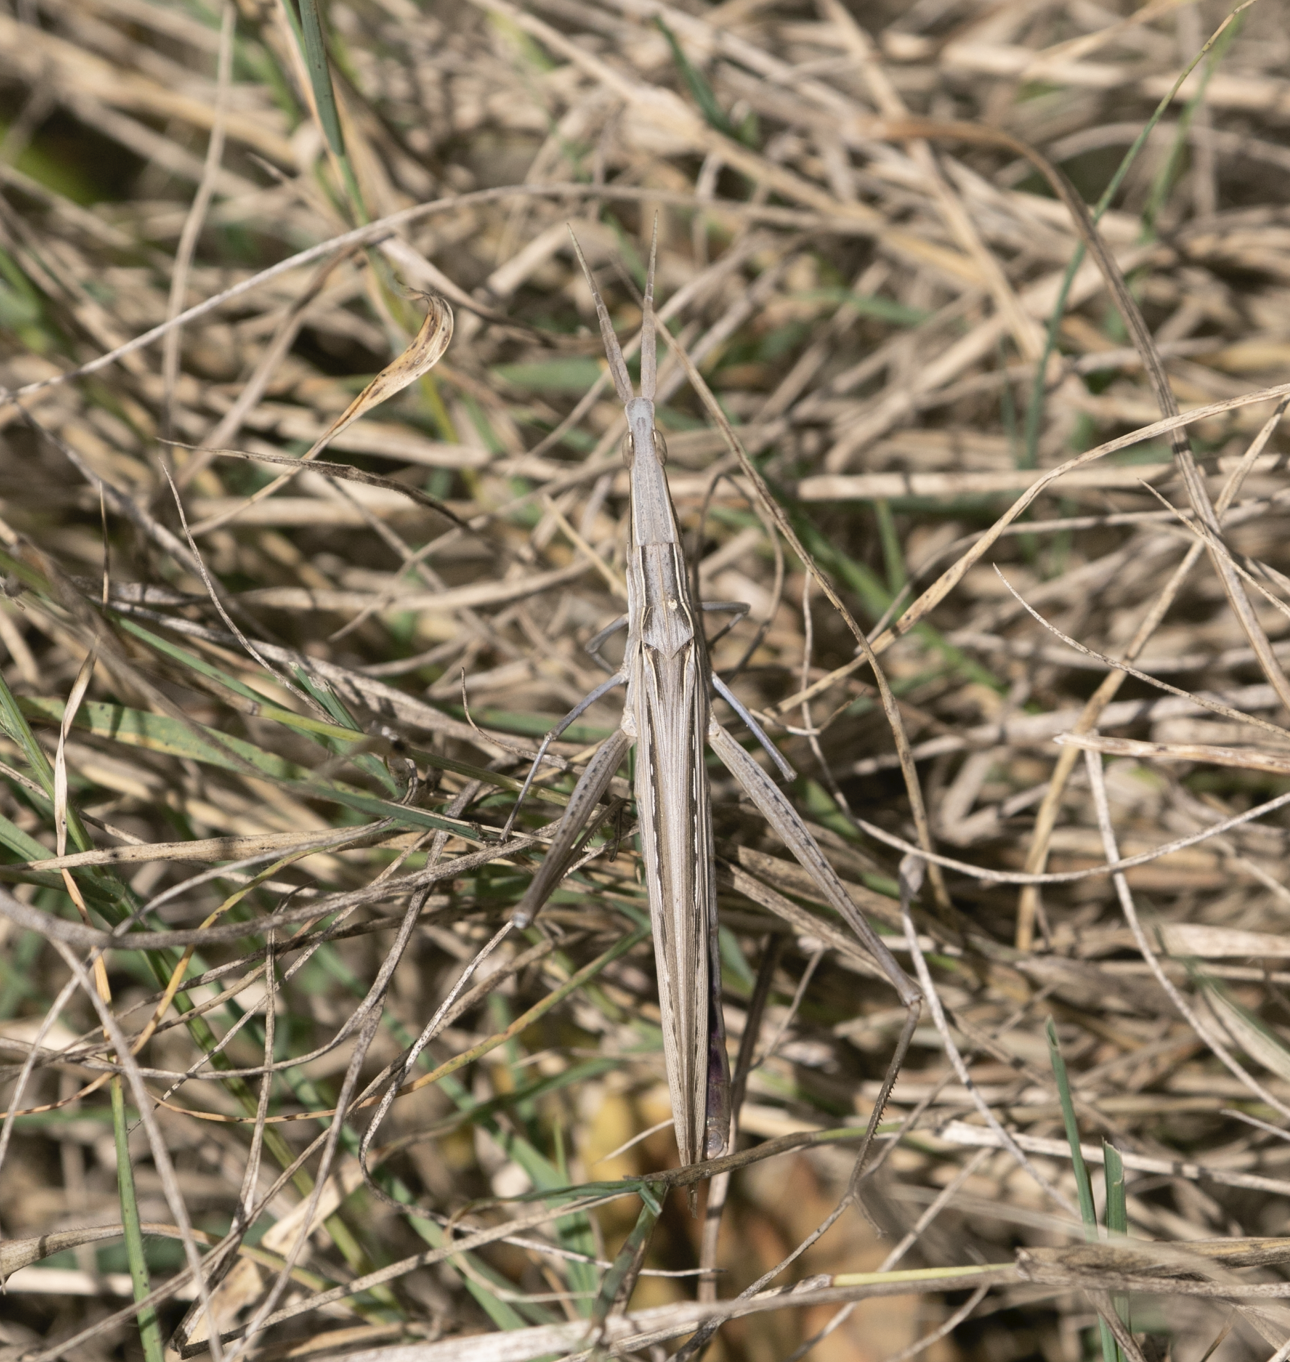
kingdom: Animalia
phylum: Arthropoda
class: Insecta
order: Orthoptera
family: Acrididae
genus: Acrida
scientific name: Acrida ungarica
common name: Common cone-headed grasshopper
